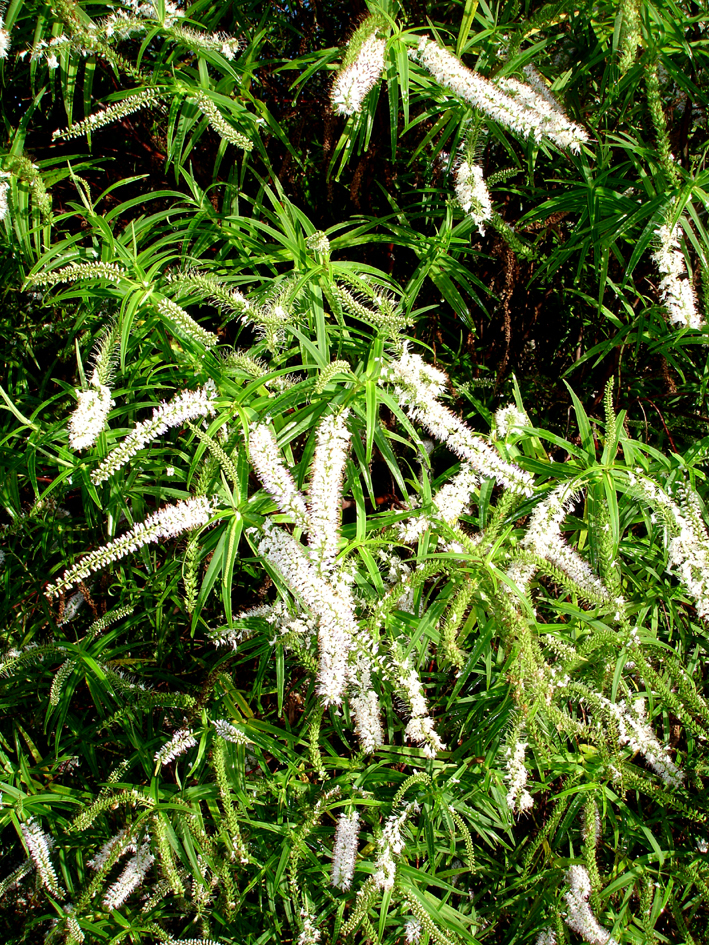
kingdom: Plantae
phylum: Tracheophyta
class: Magnoliopsida
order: Lamiales
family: Plantaginaceae
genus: Veronica
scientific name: Veronica tairawhiti
